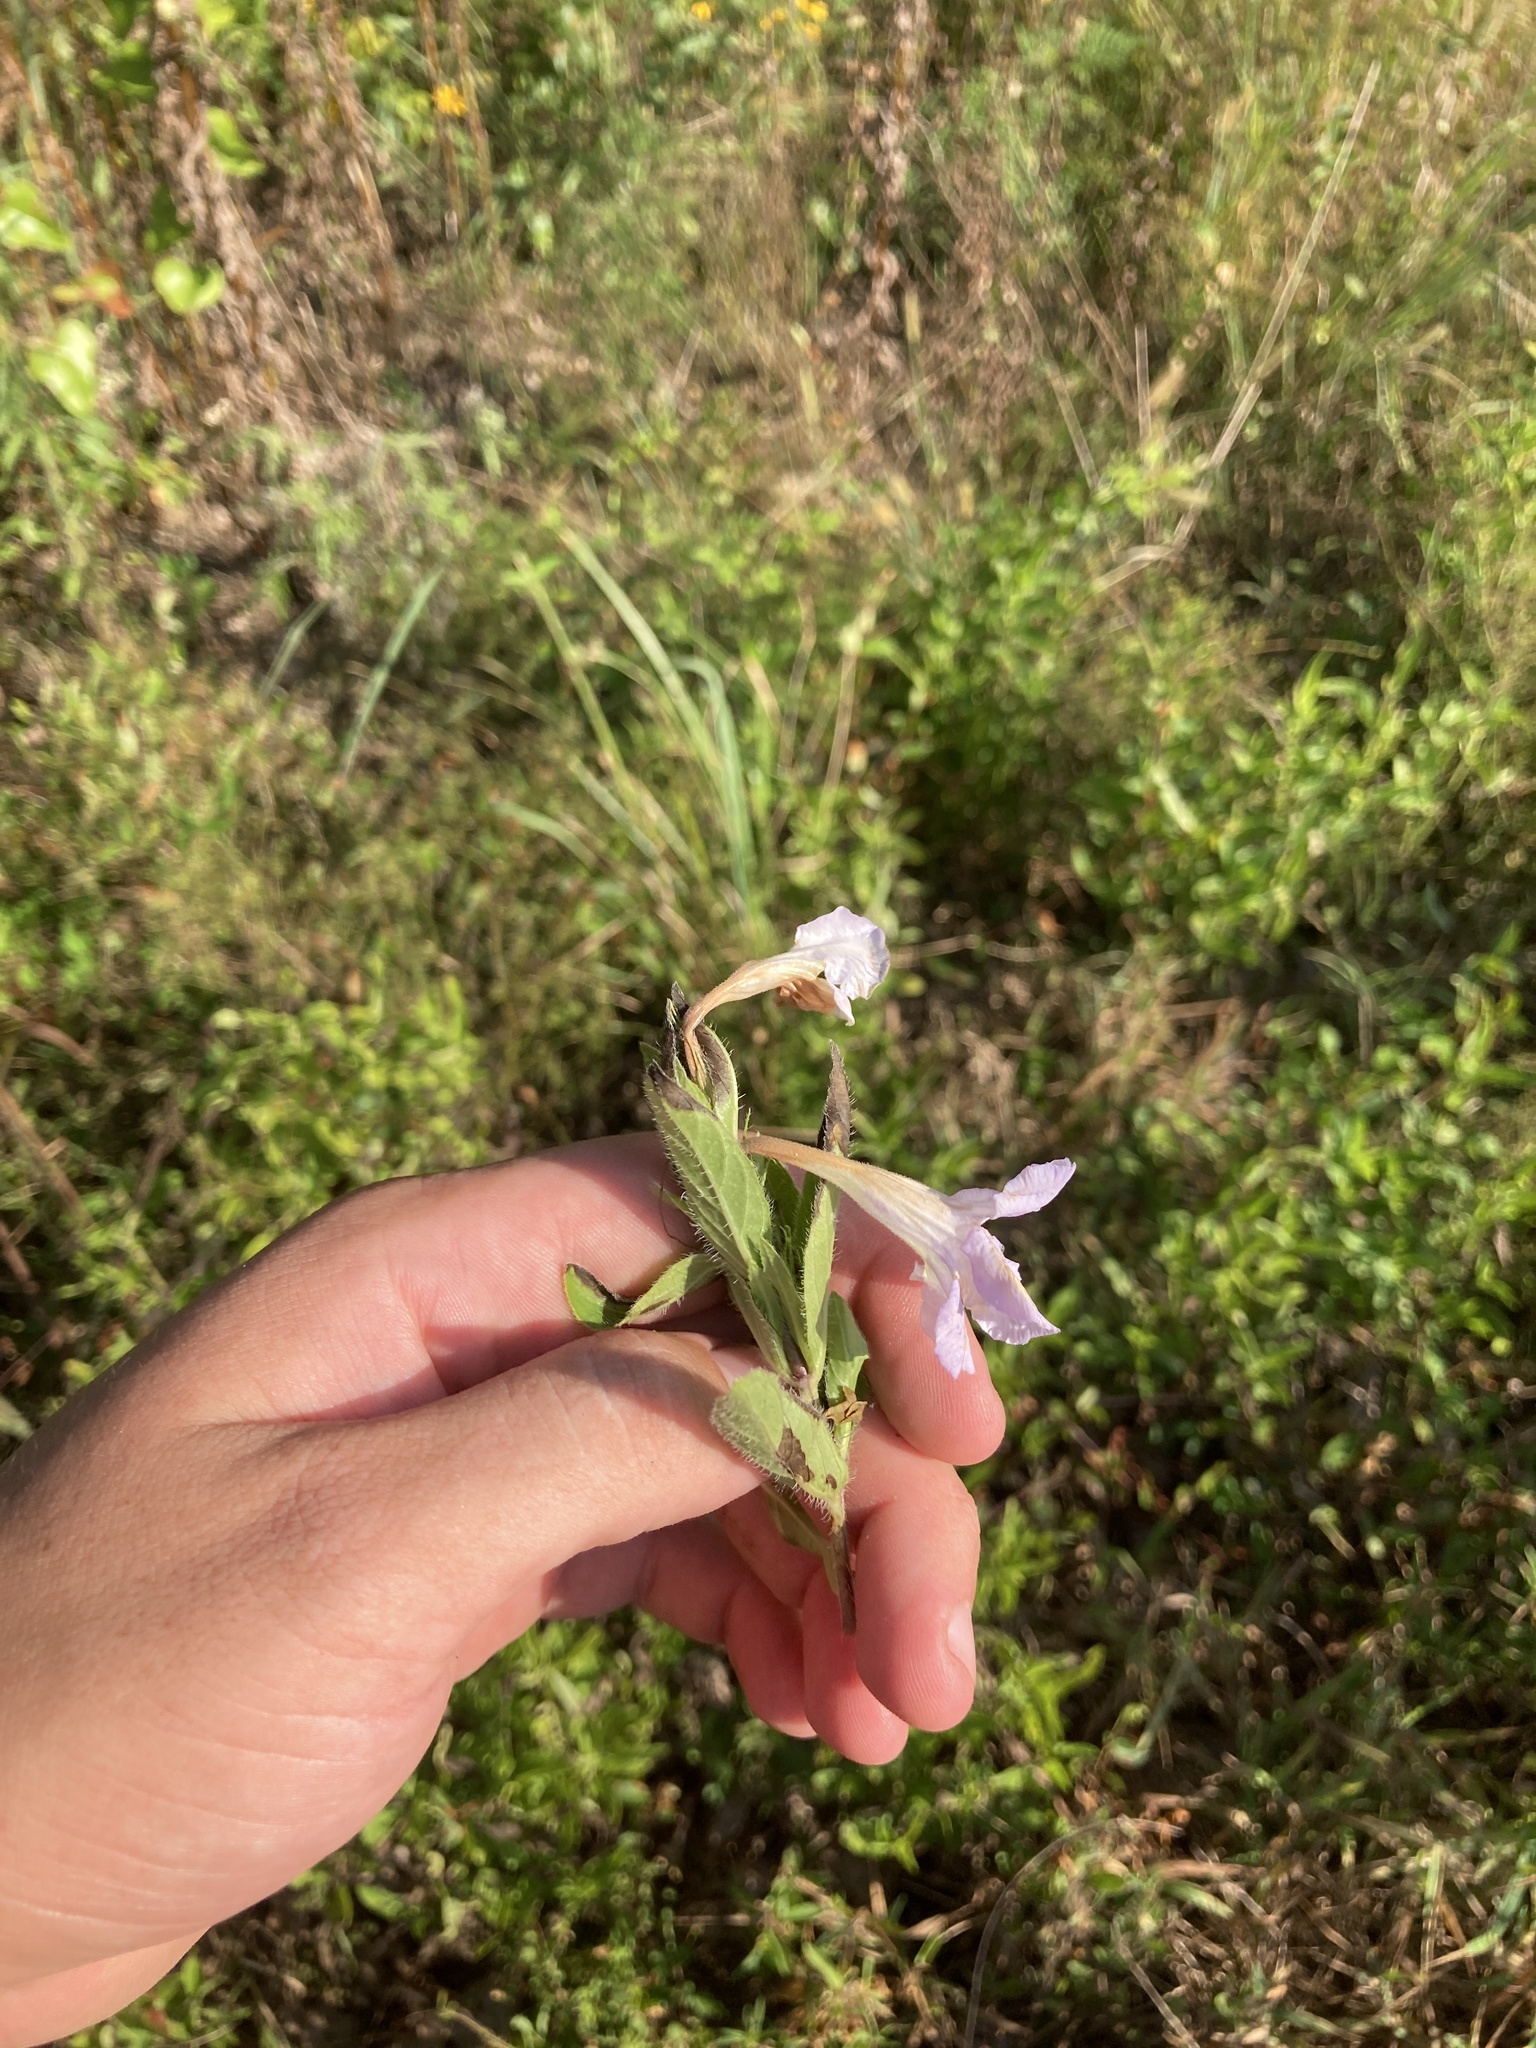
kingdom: Plantae
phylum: Tracheophyta
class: Magnoliopsida
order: Lamiales
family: Acanthaceae
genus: Ruellia
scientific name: Ruellia humilis
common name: Fringe-leaf ruellia
